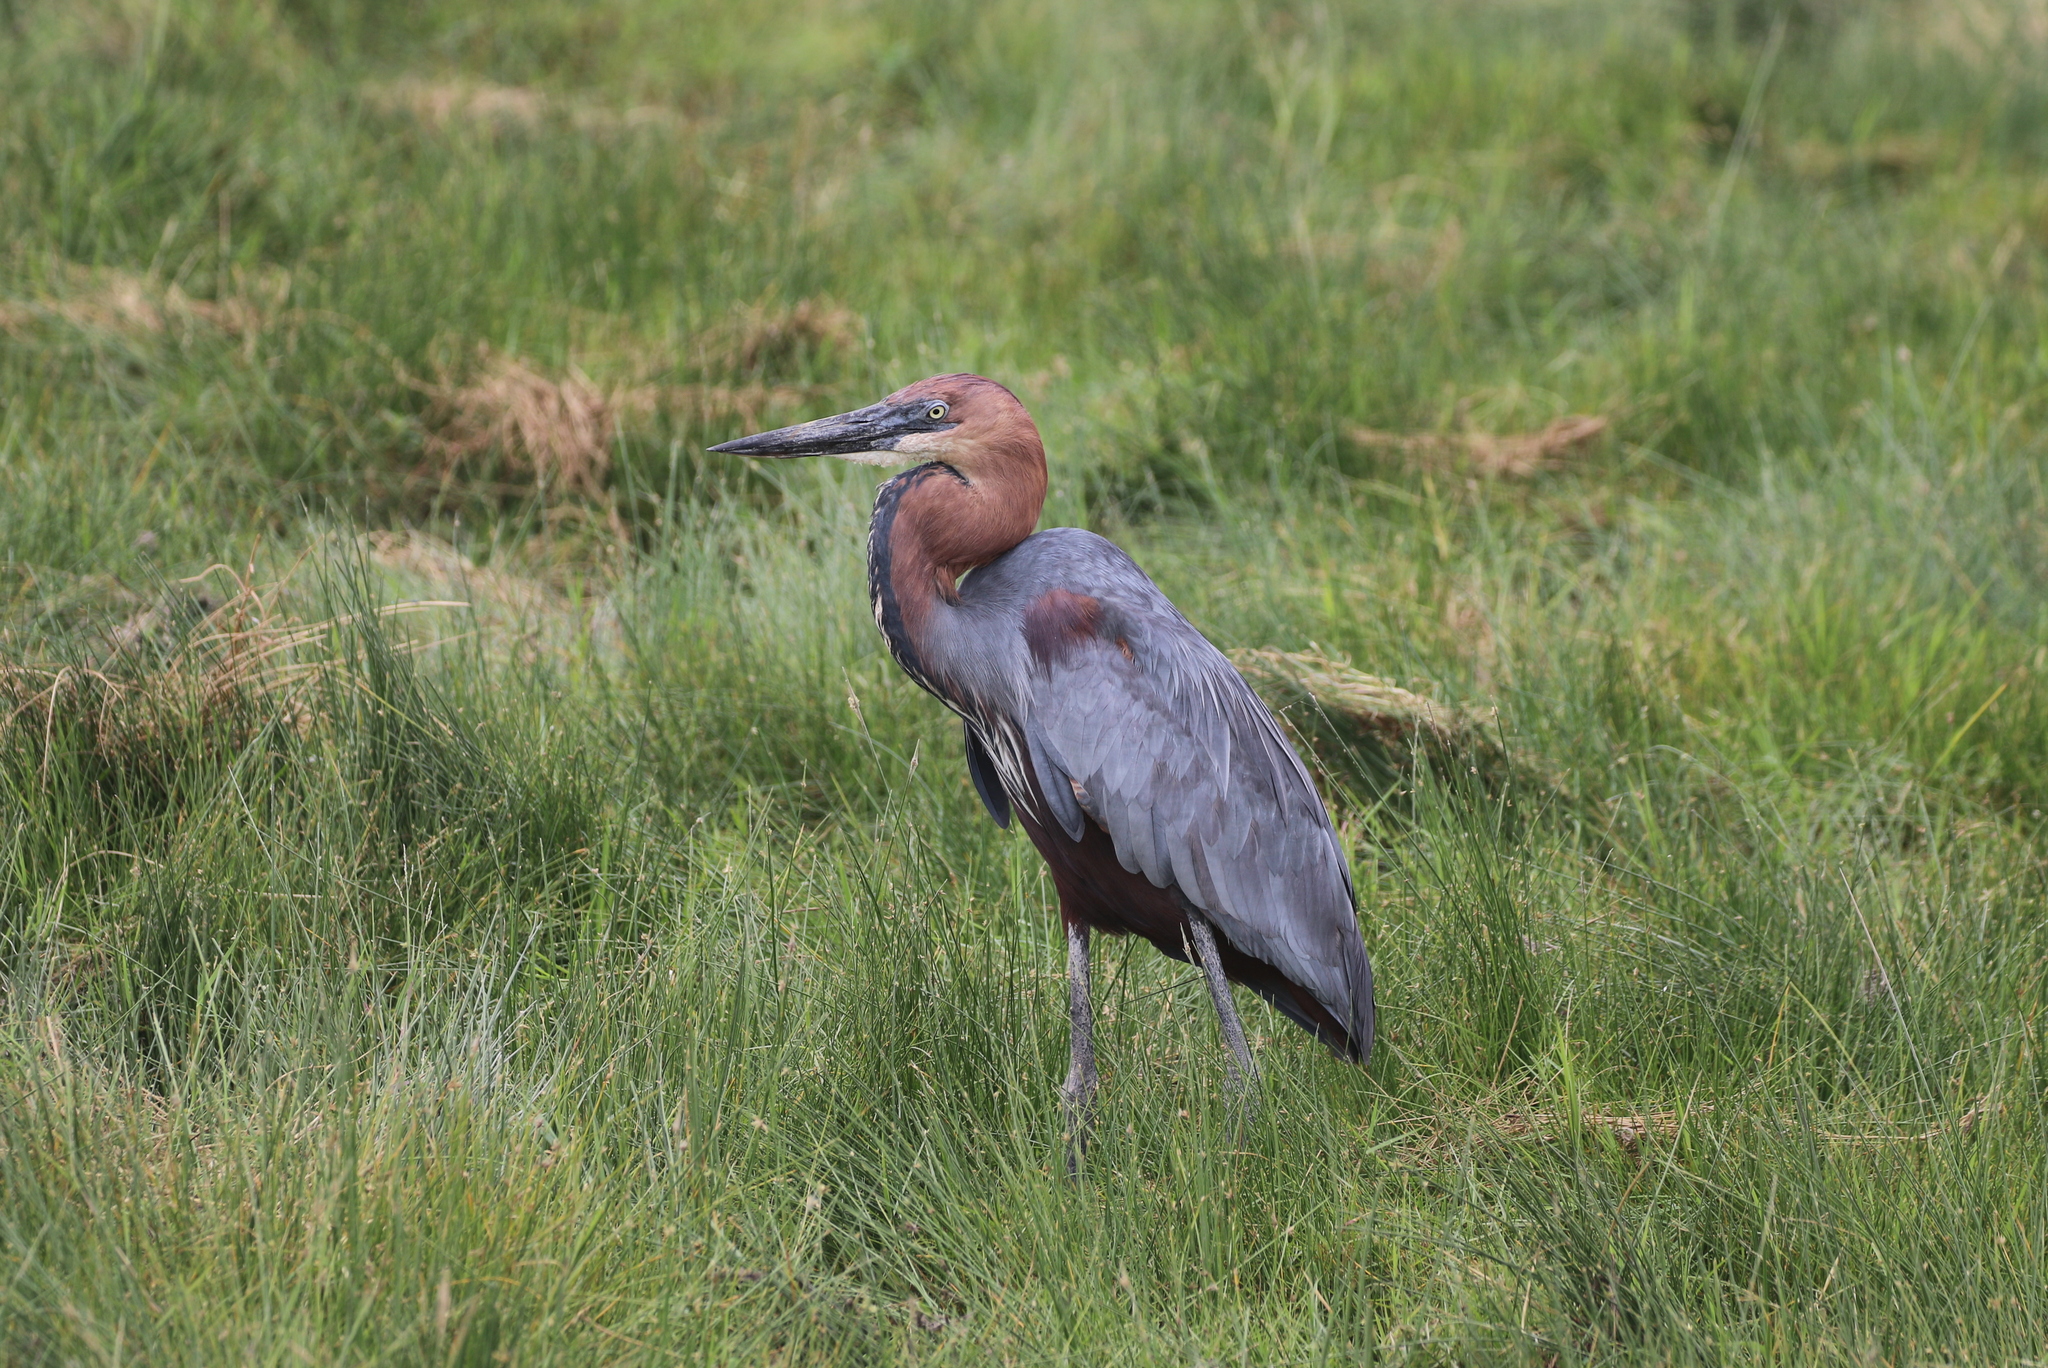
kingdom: Animalia
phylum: Chordata
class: Aves
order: Pelecaniformes
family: Ardeidae
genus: Ardea
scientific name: Ardea goliath
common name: Goliath heron
